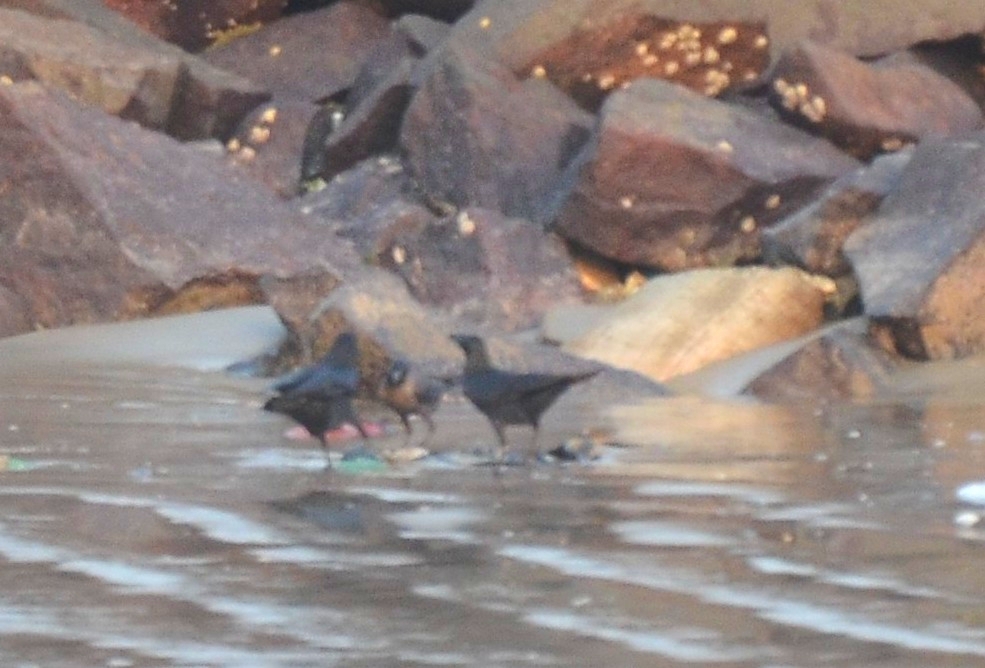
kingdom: Animalia
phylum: Chordata
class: Aves
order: Passeriformes
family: Corvidae
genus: Corvus
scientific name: Corvus splendens
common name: House crow
